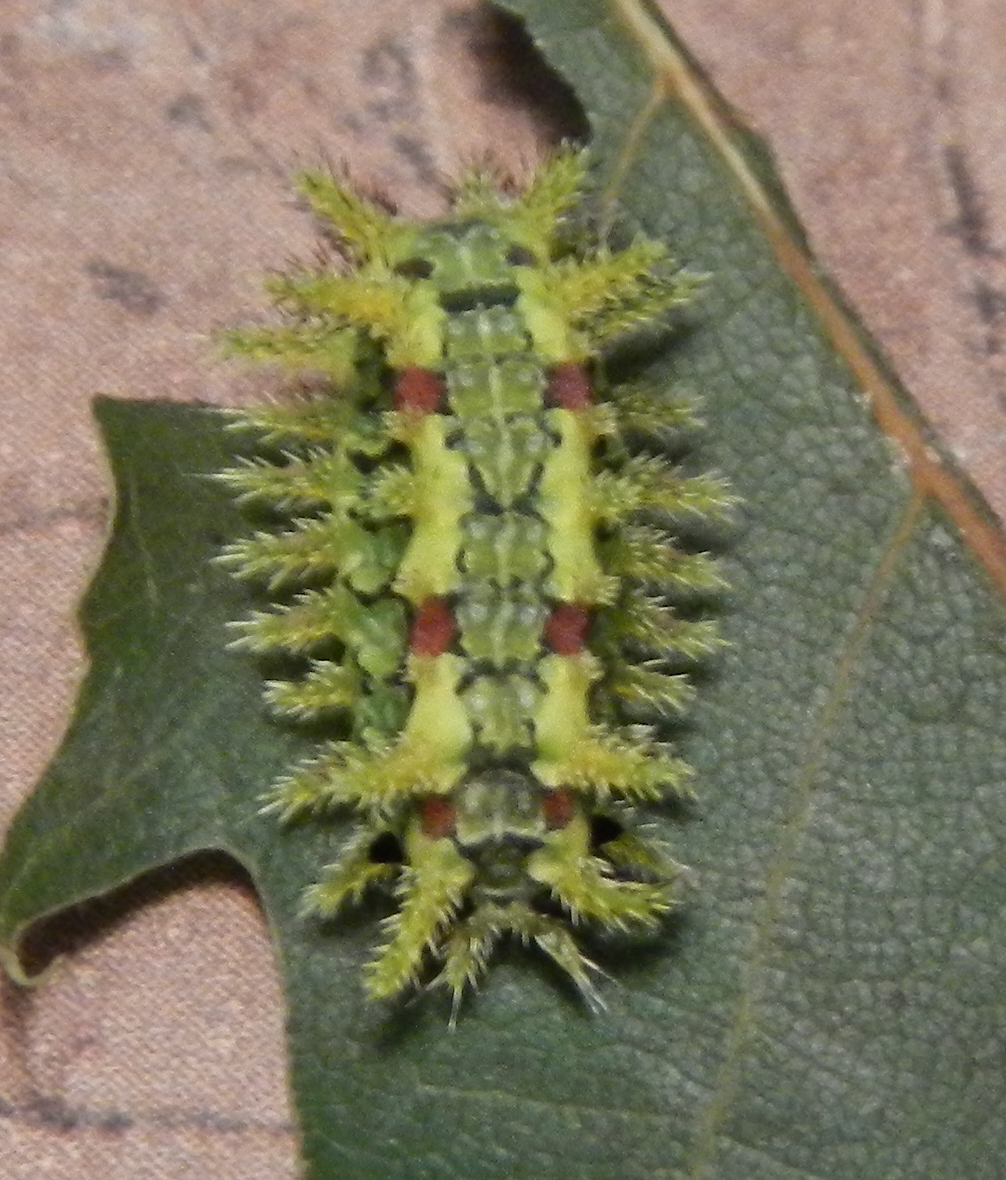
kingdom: Animalia
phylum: Arthropoda
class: Insecta
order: Lepidoptera
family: Limacodidae
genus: Euclea
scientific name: Euclea delphinii
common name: Spiny oak-slug moth
